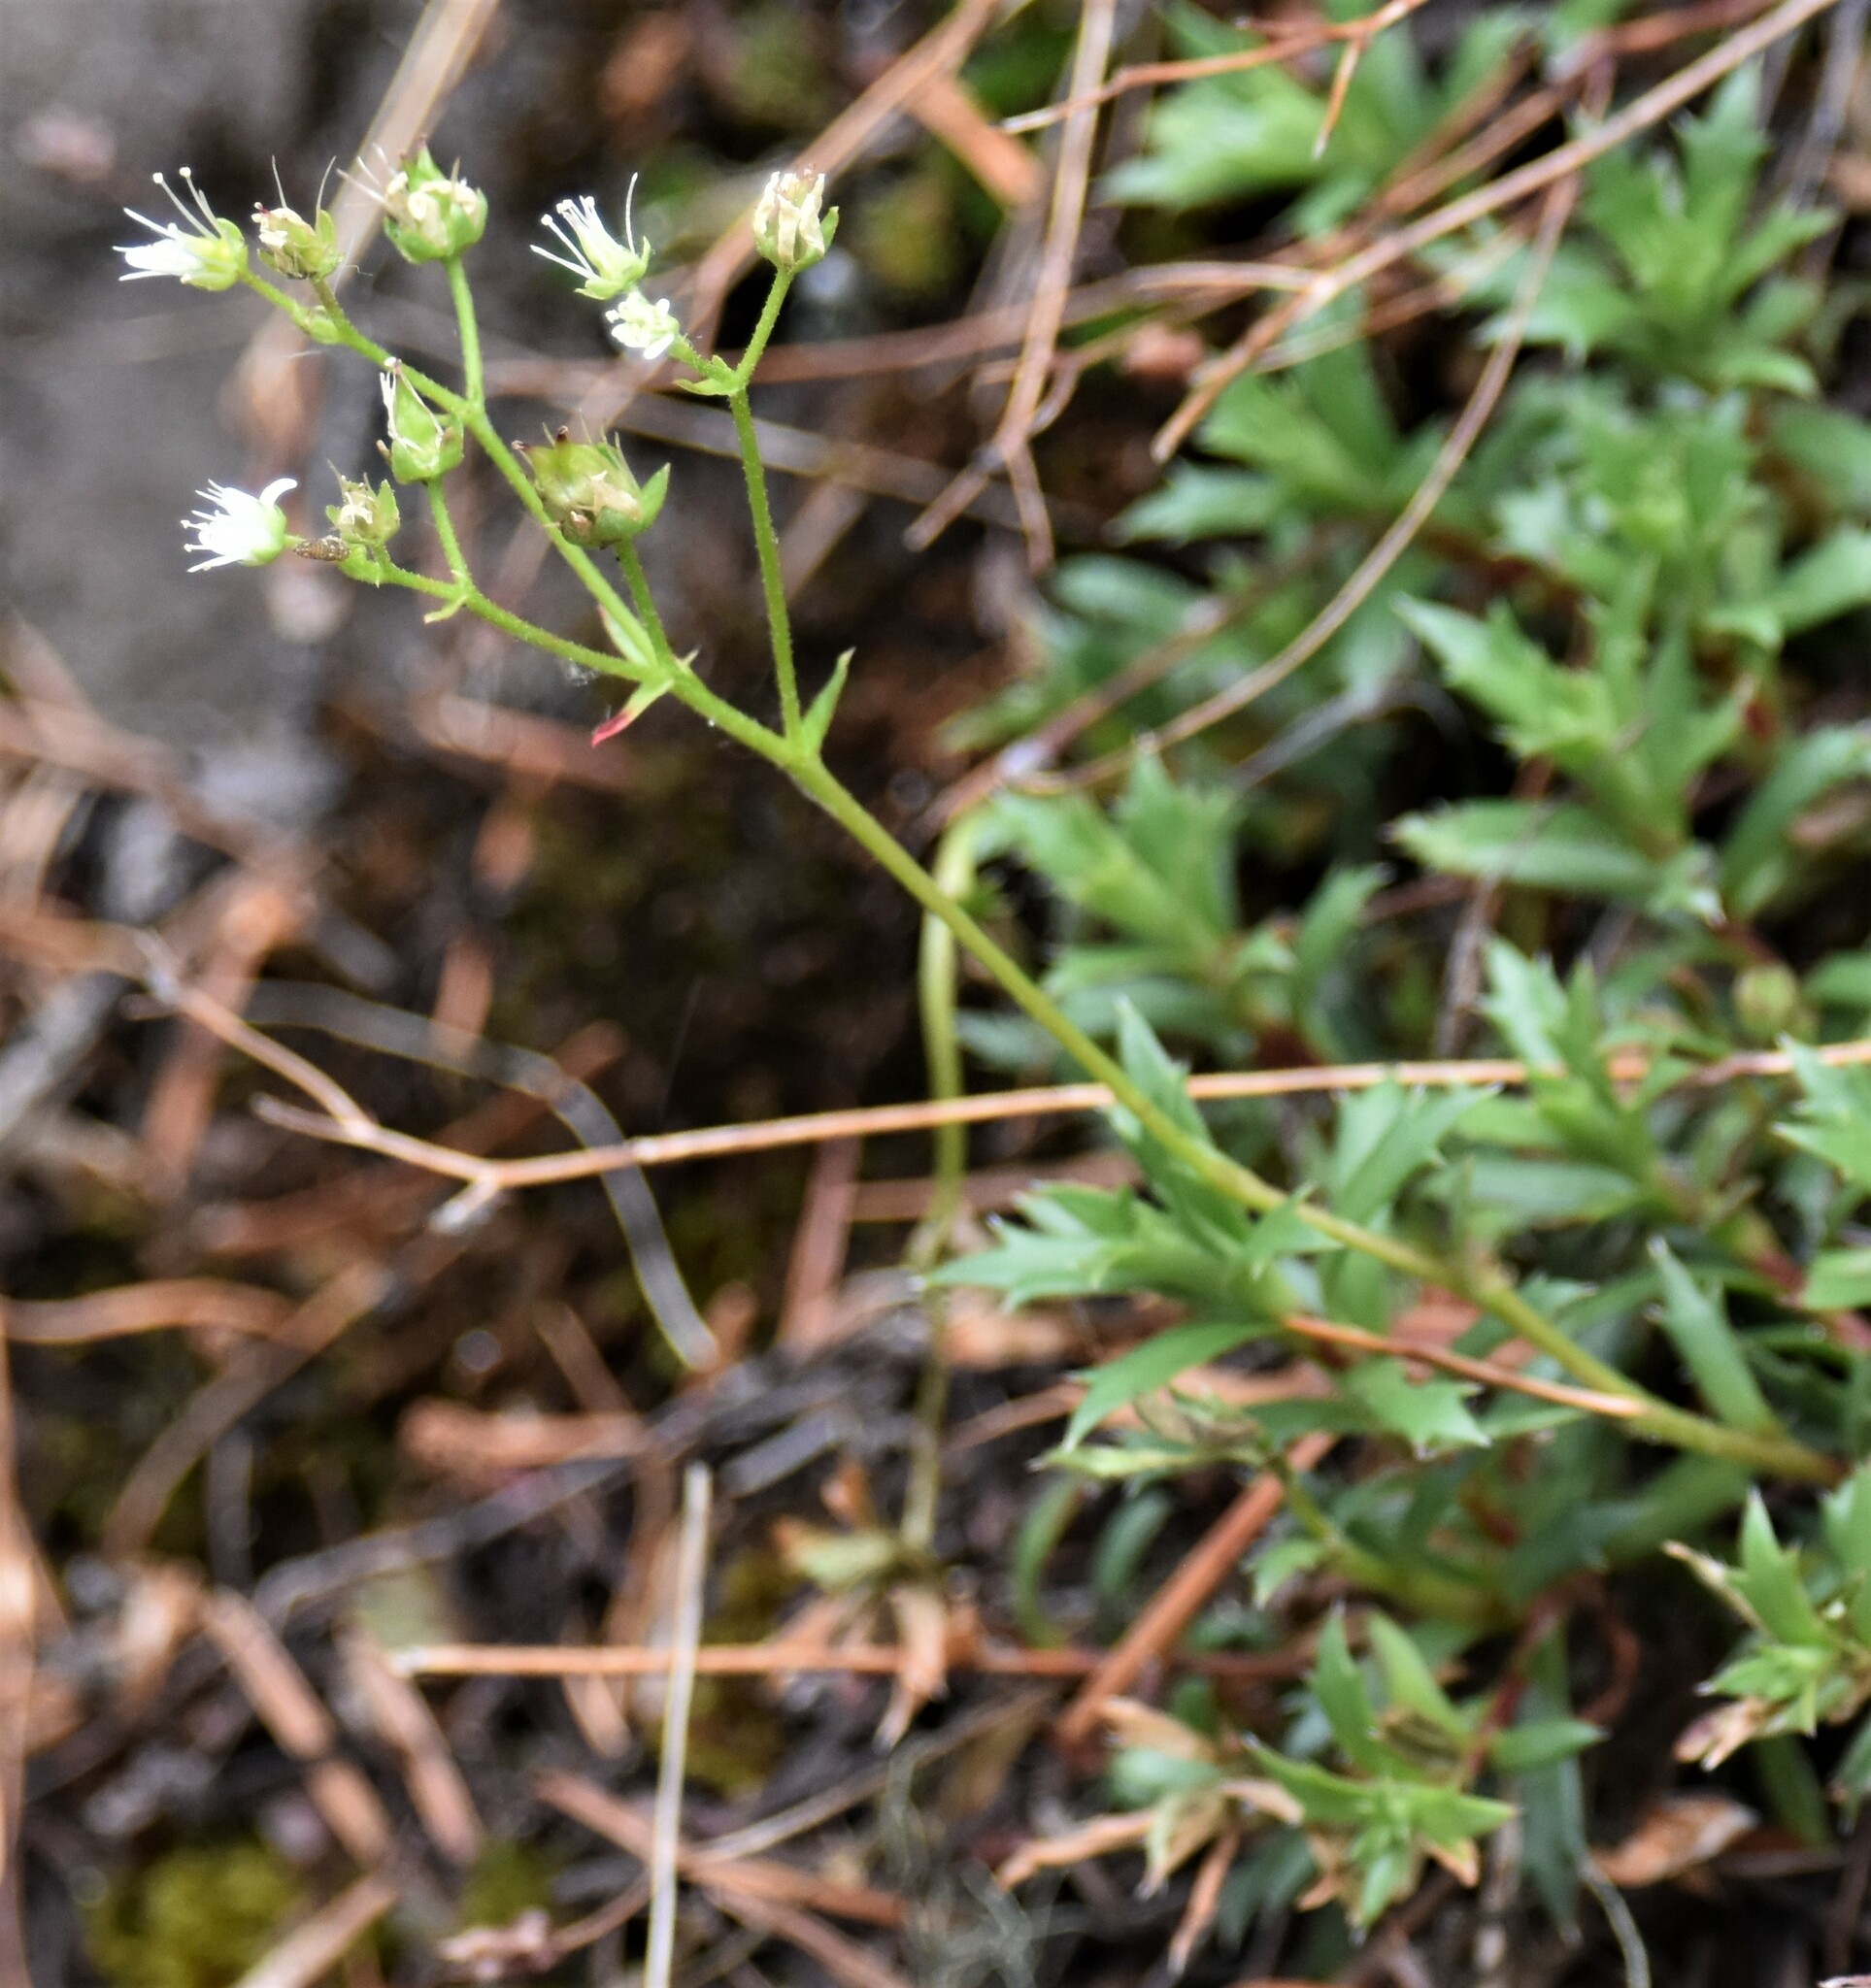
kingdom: Plantae
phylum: Tracheophyta
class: Magnoliopsida
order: Saxifragales
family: Saxifragaceae
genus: Saxifraga
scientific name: Saxifraga tricuspidata
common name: Prickly saxifrage
